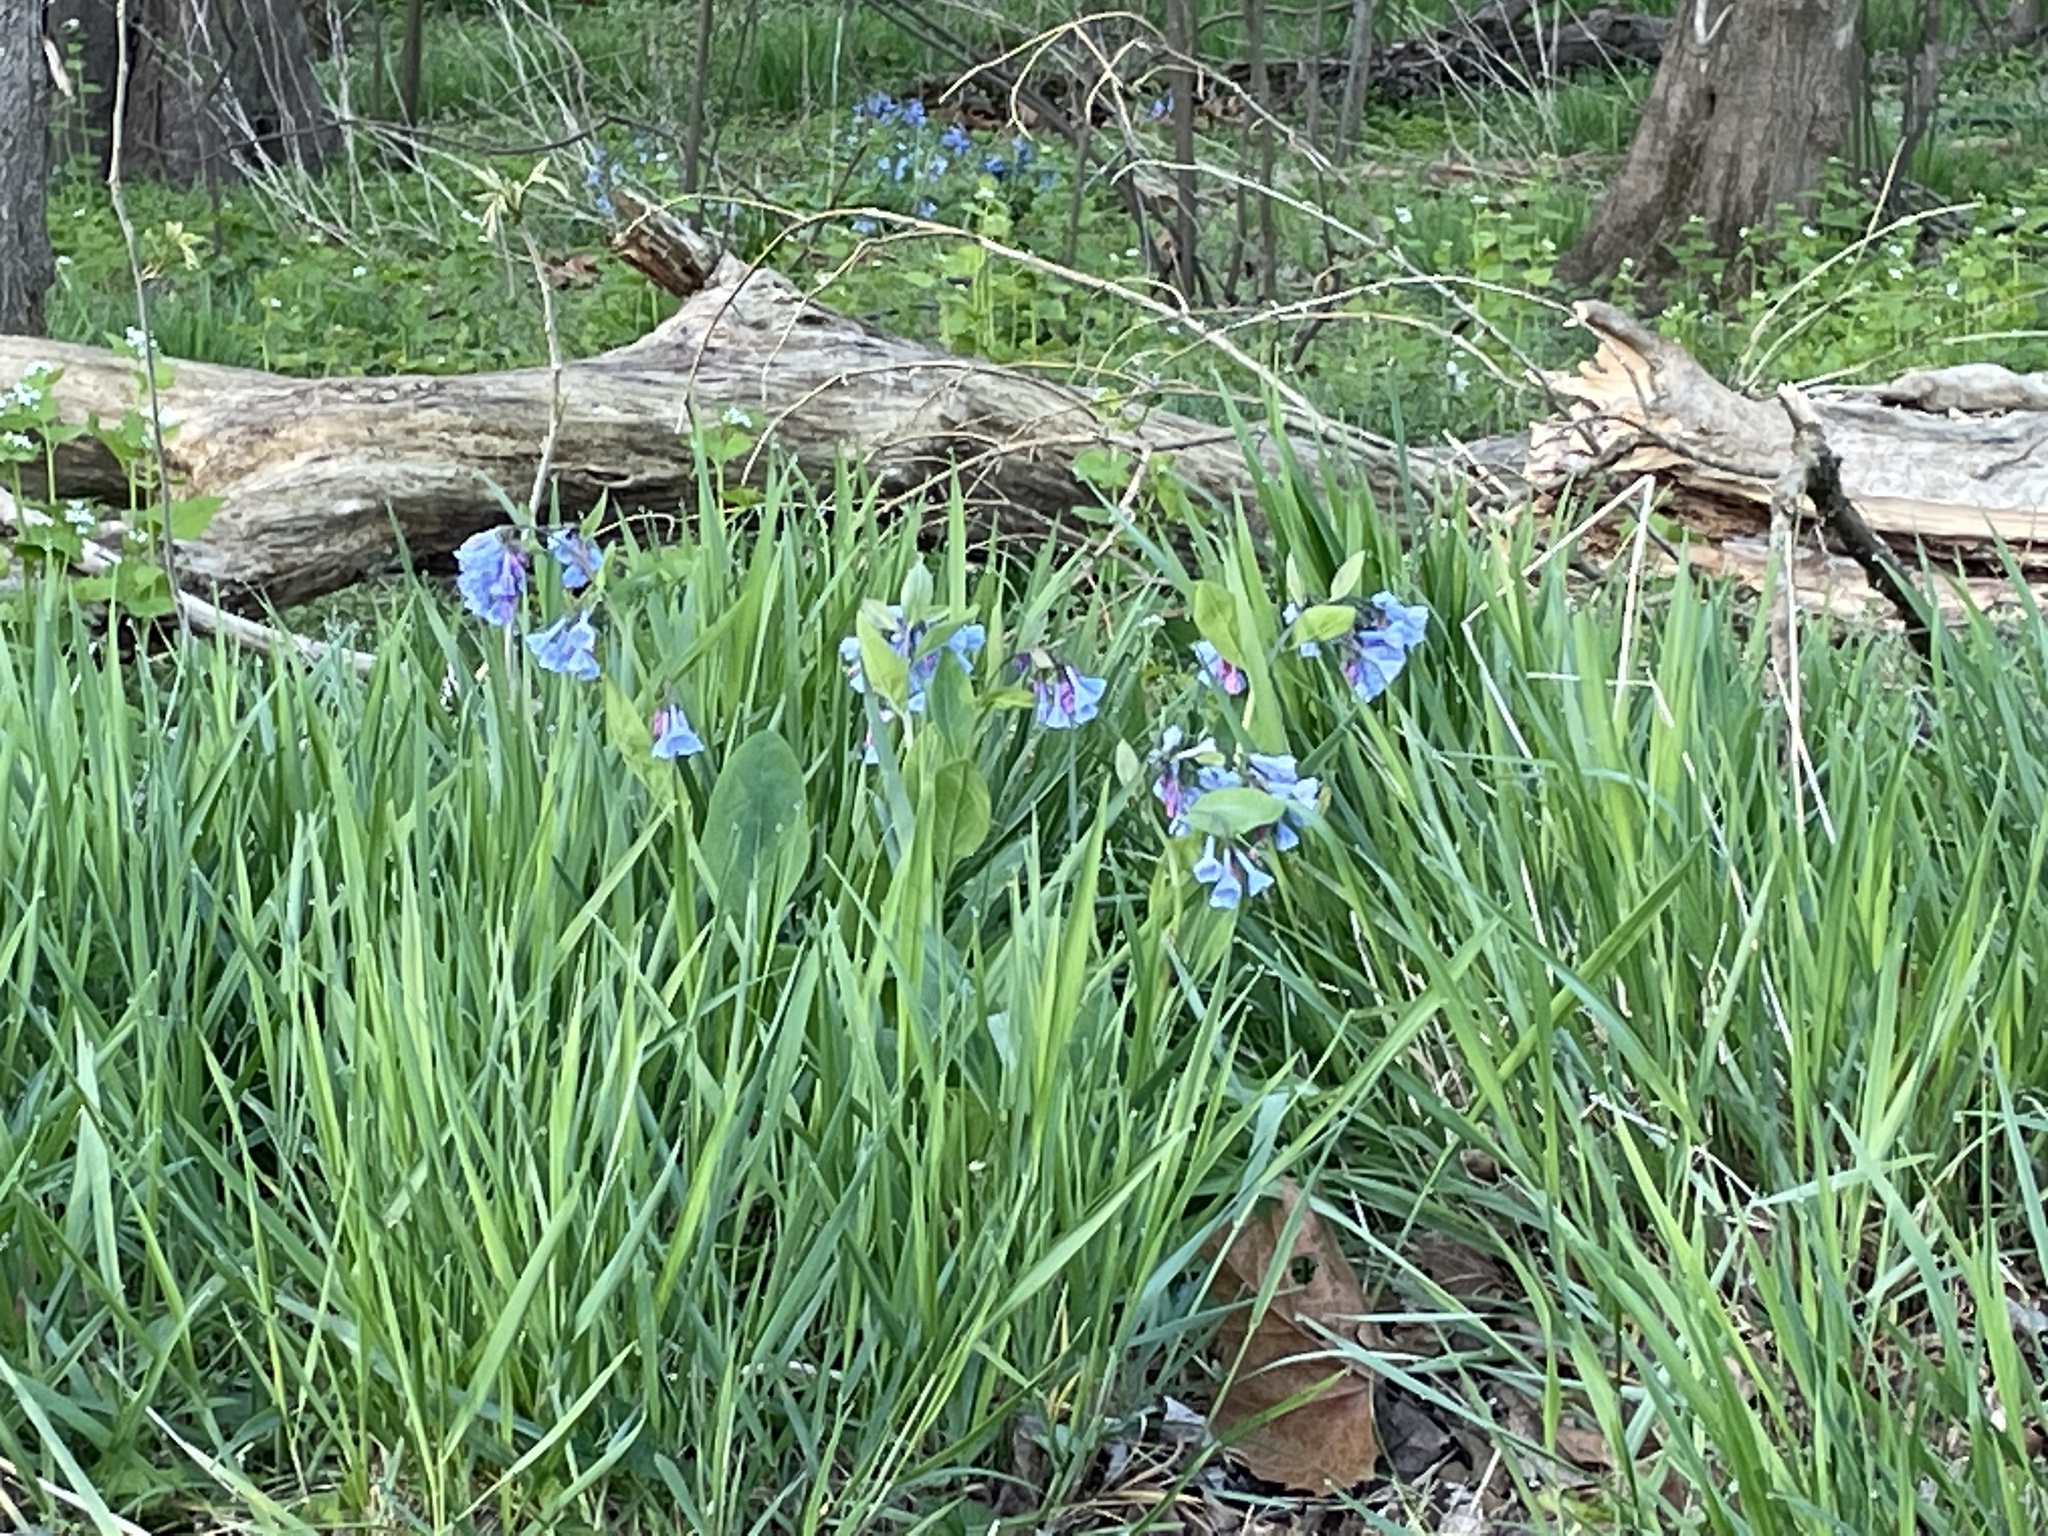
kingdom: Plantae
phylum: Tracheophyta
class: Magnoliopsida
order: Boraginales
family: Boraginaceae
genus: Mertensia
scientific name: Mertensia virginica
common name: Virginia bluebells
